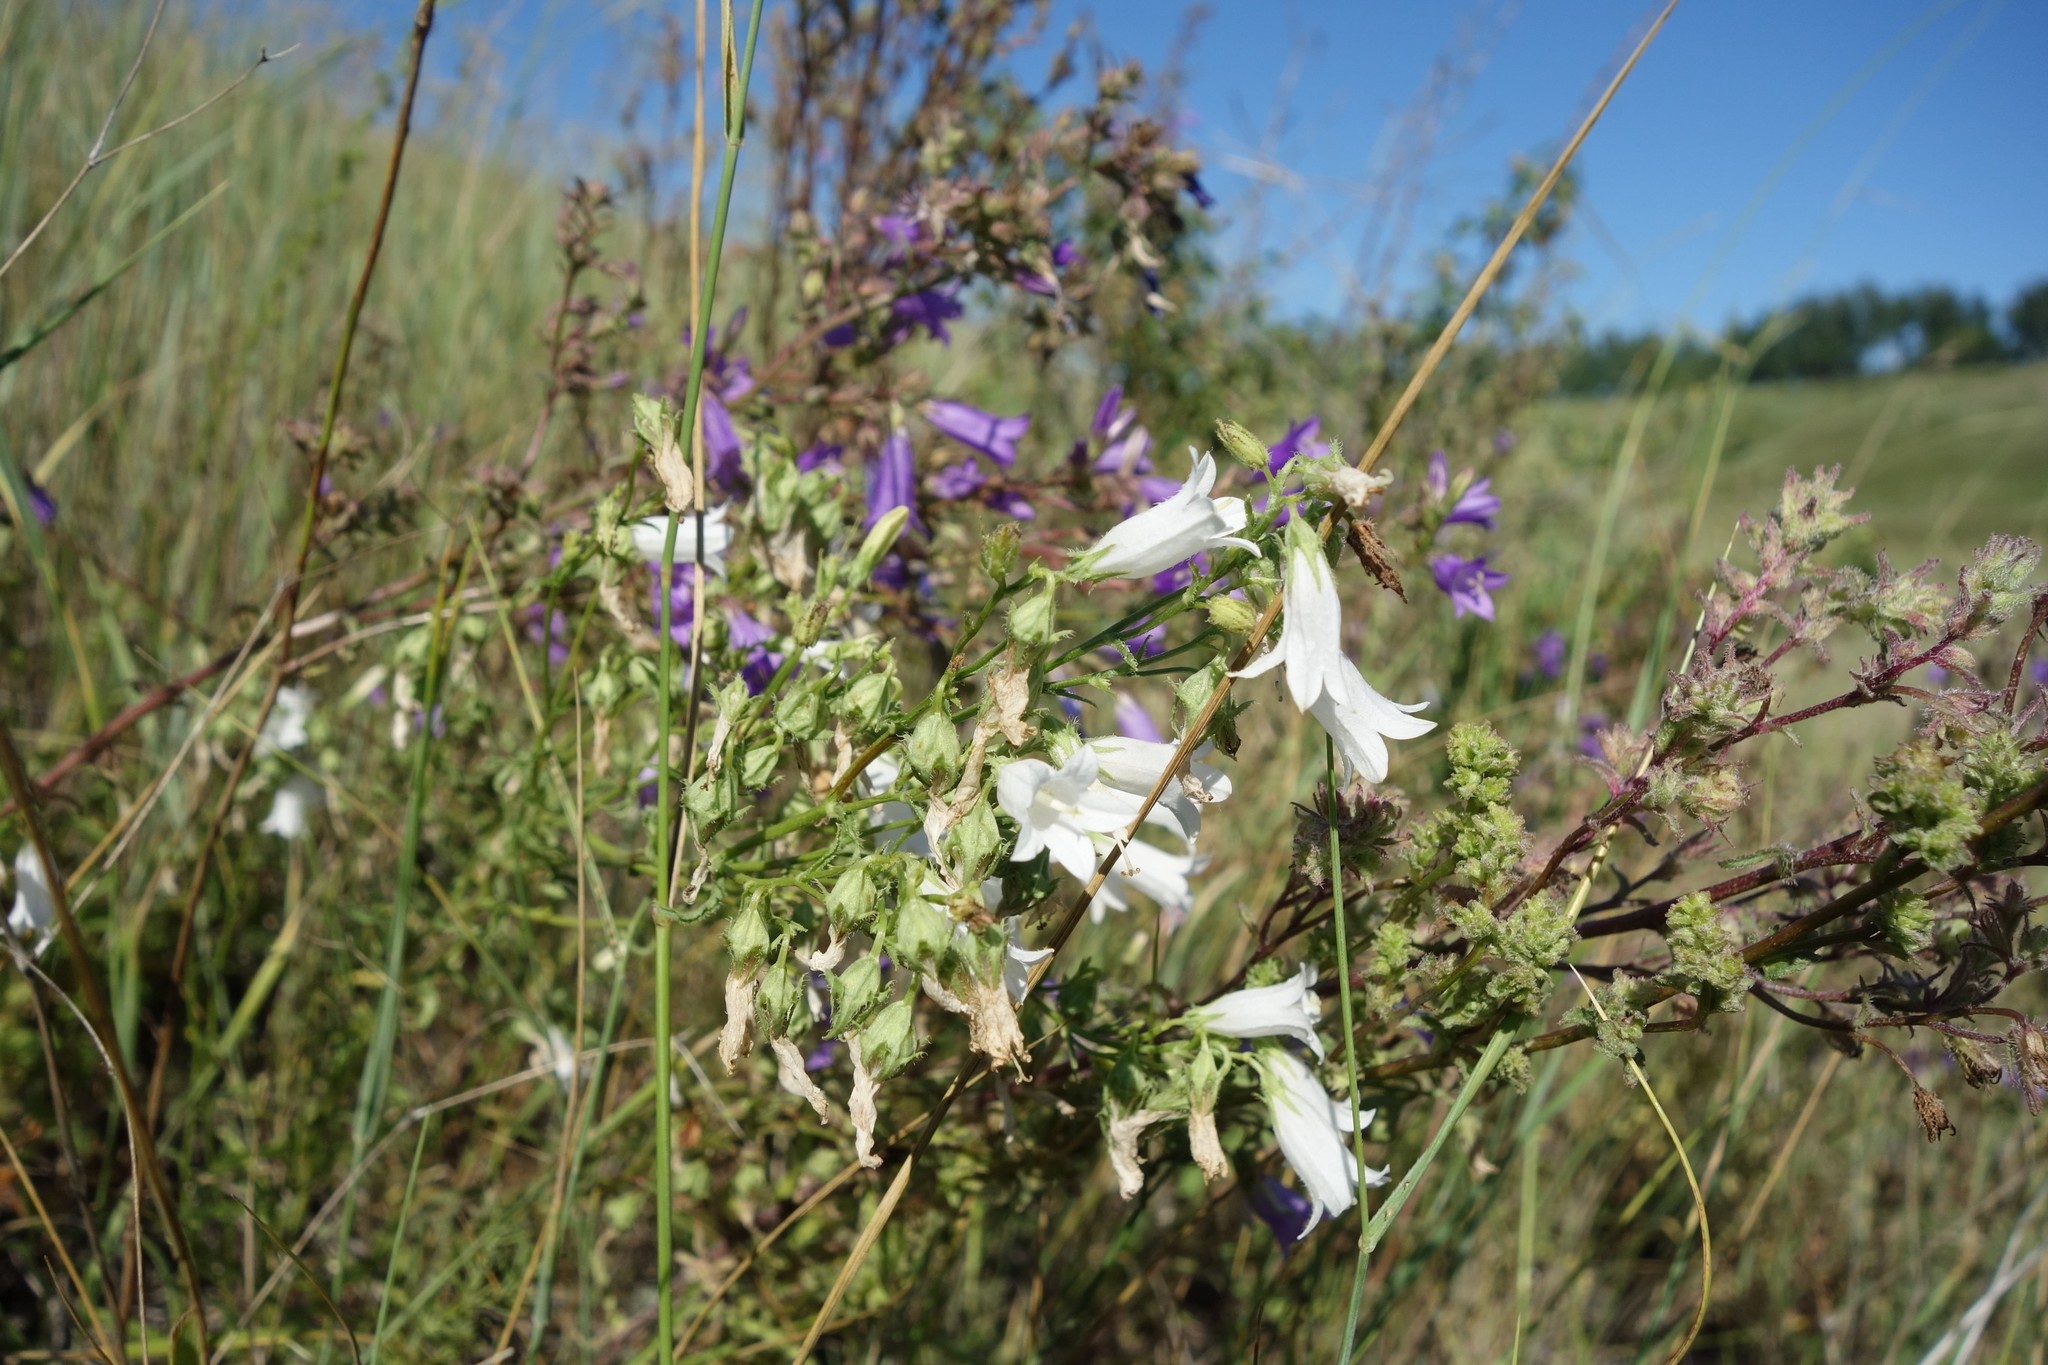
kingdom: Plantae
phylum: Tracheophyta
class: Magnoliopsida
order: Asterales
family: Campanulaceae
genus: Campanula
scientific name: Campanula sibirica
